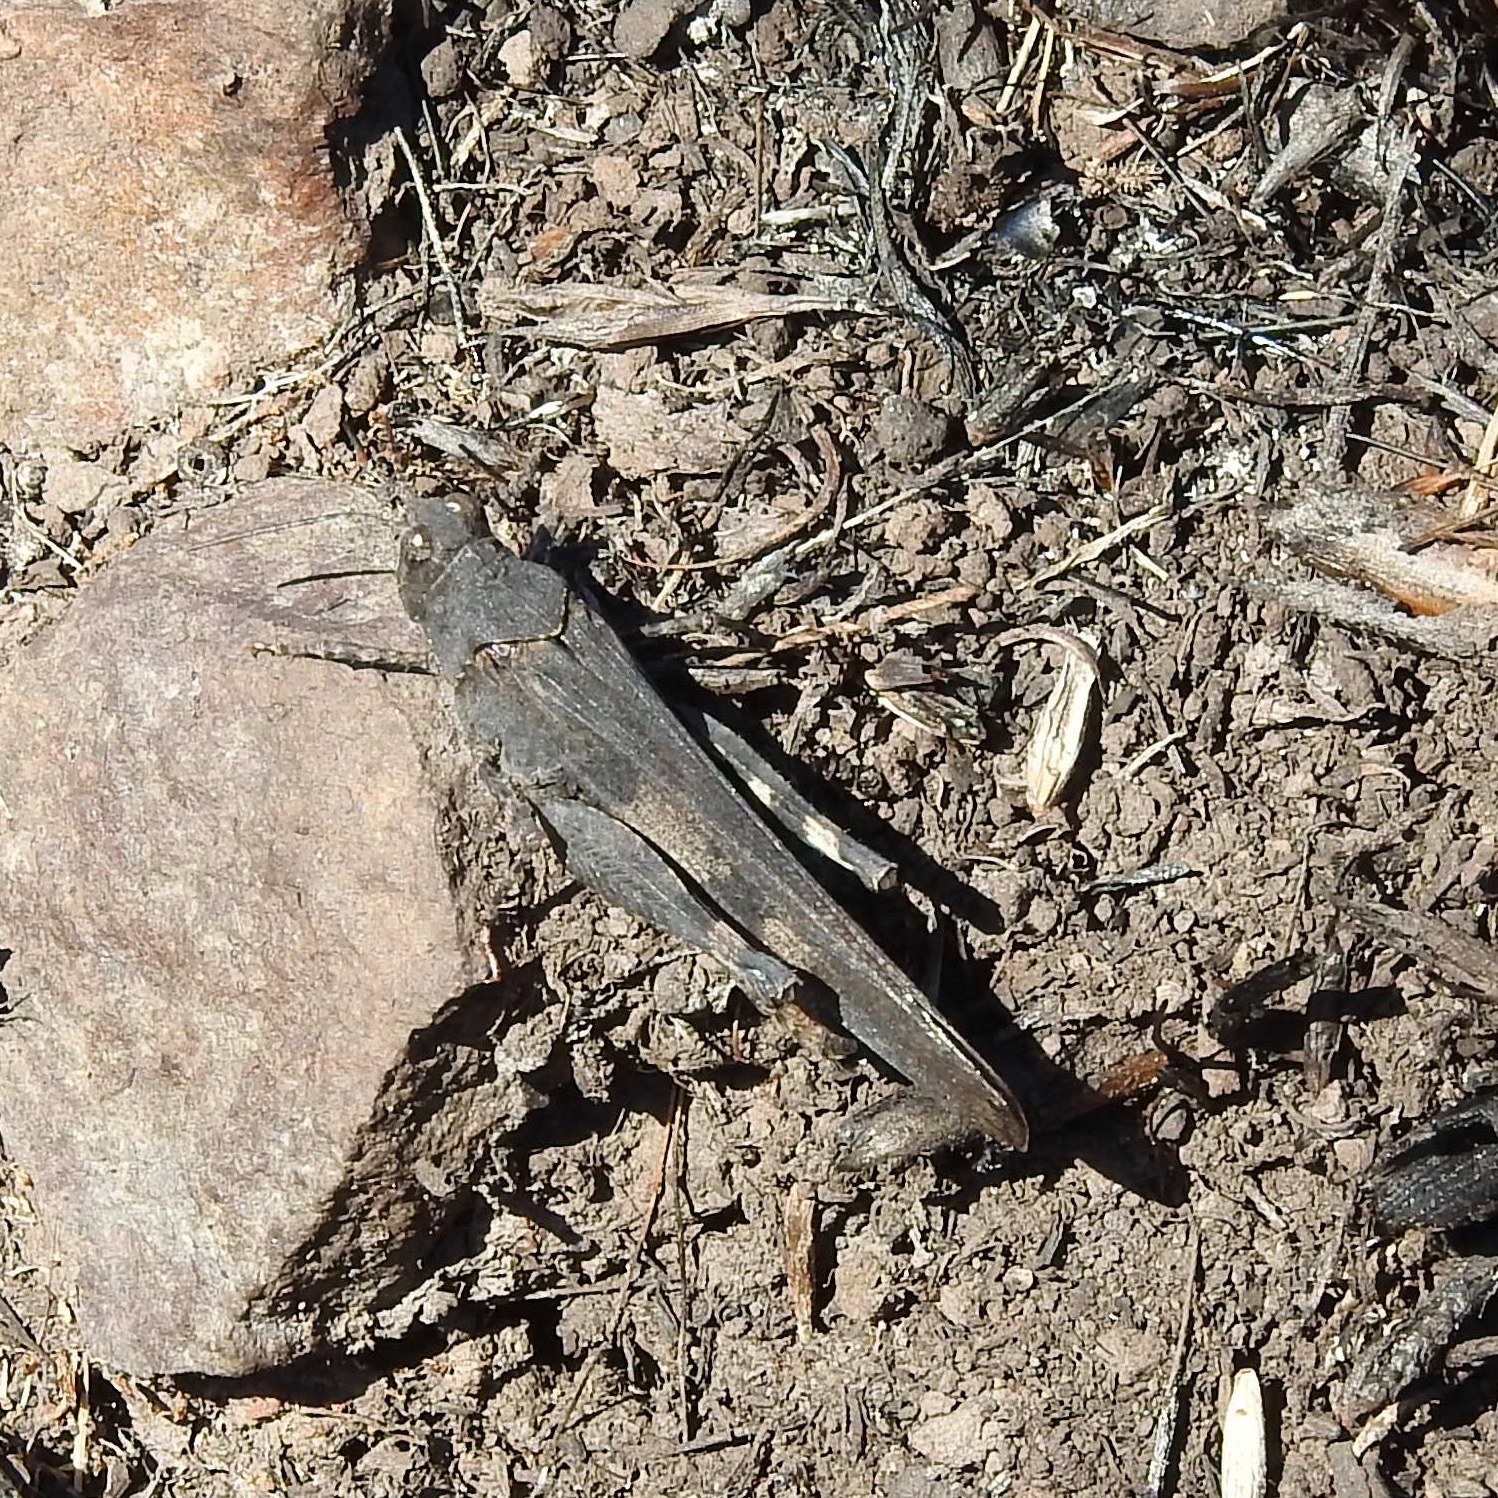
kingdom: Animalia
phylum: Arthropoda
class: Insecta
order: Orthoptera
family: Acrididae
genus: Trimerotropis
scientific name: Trimerotropis fontana
